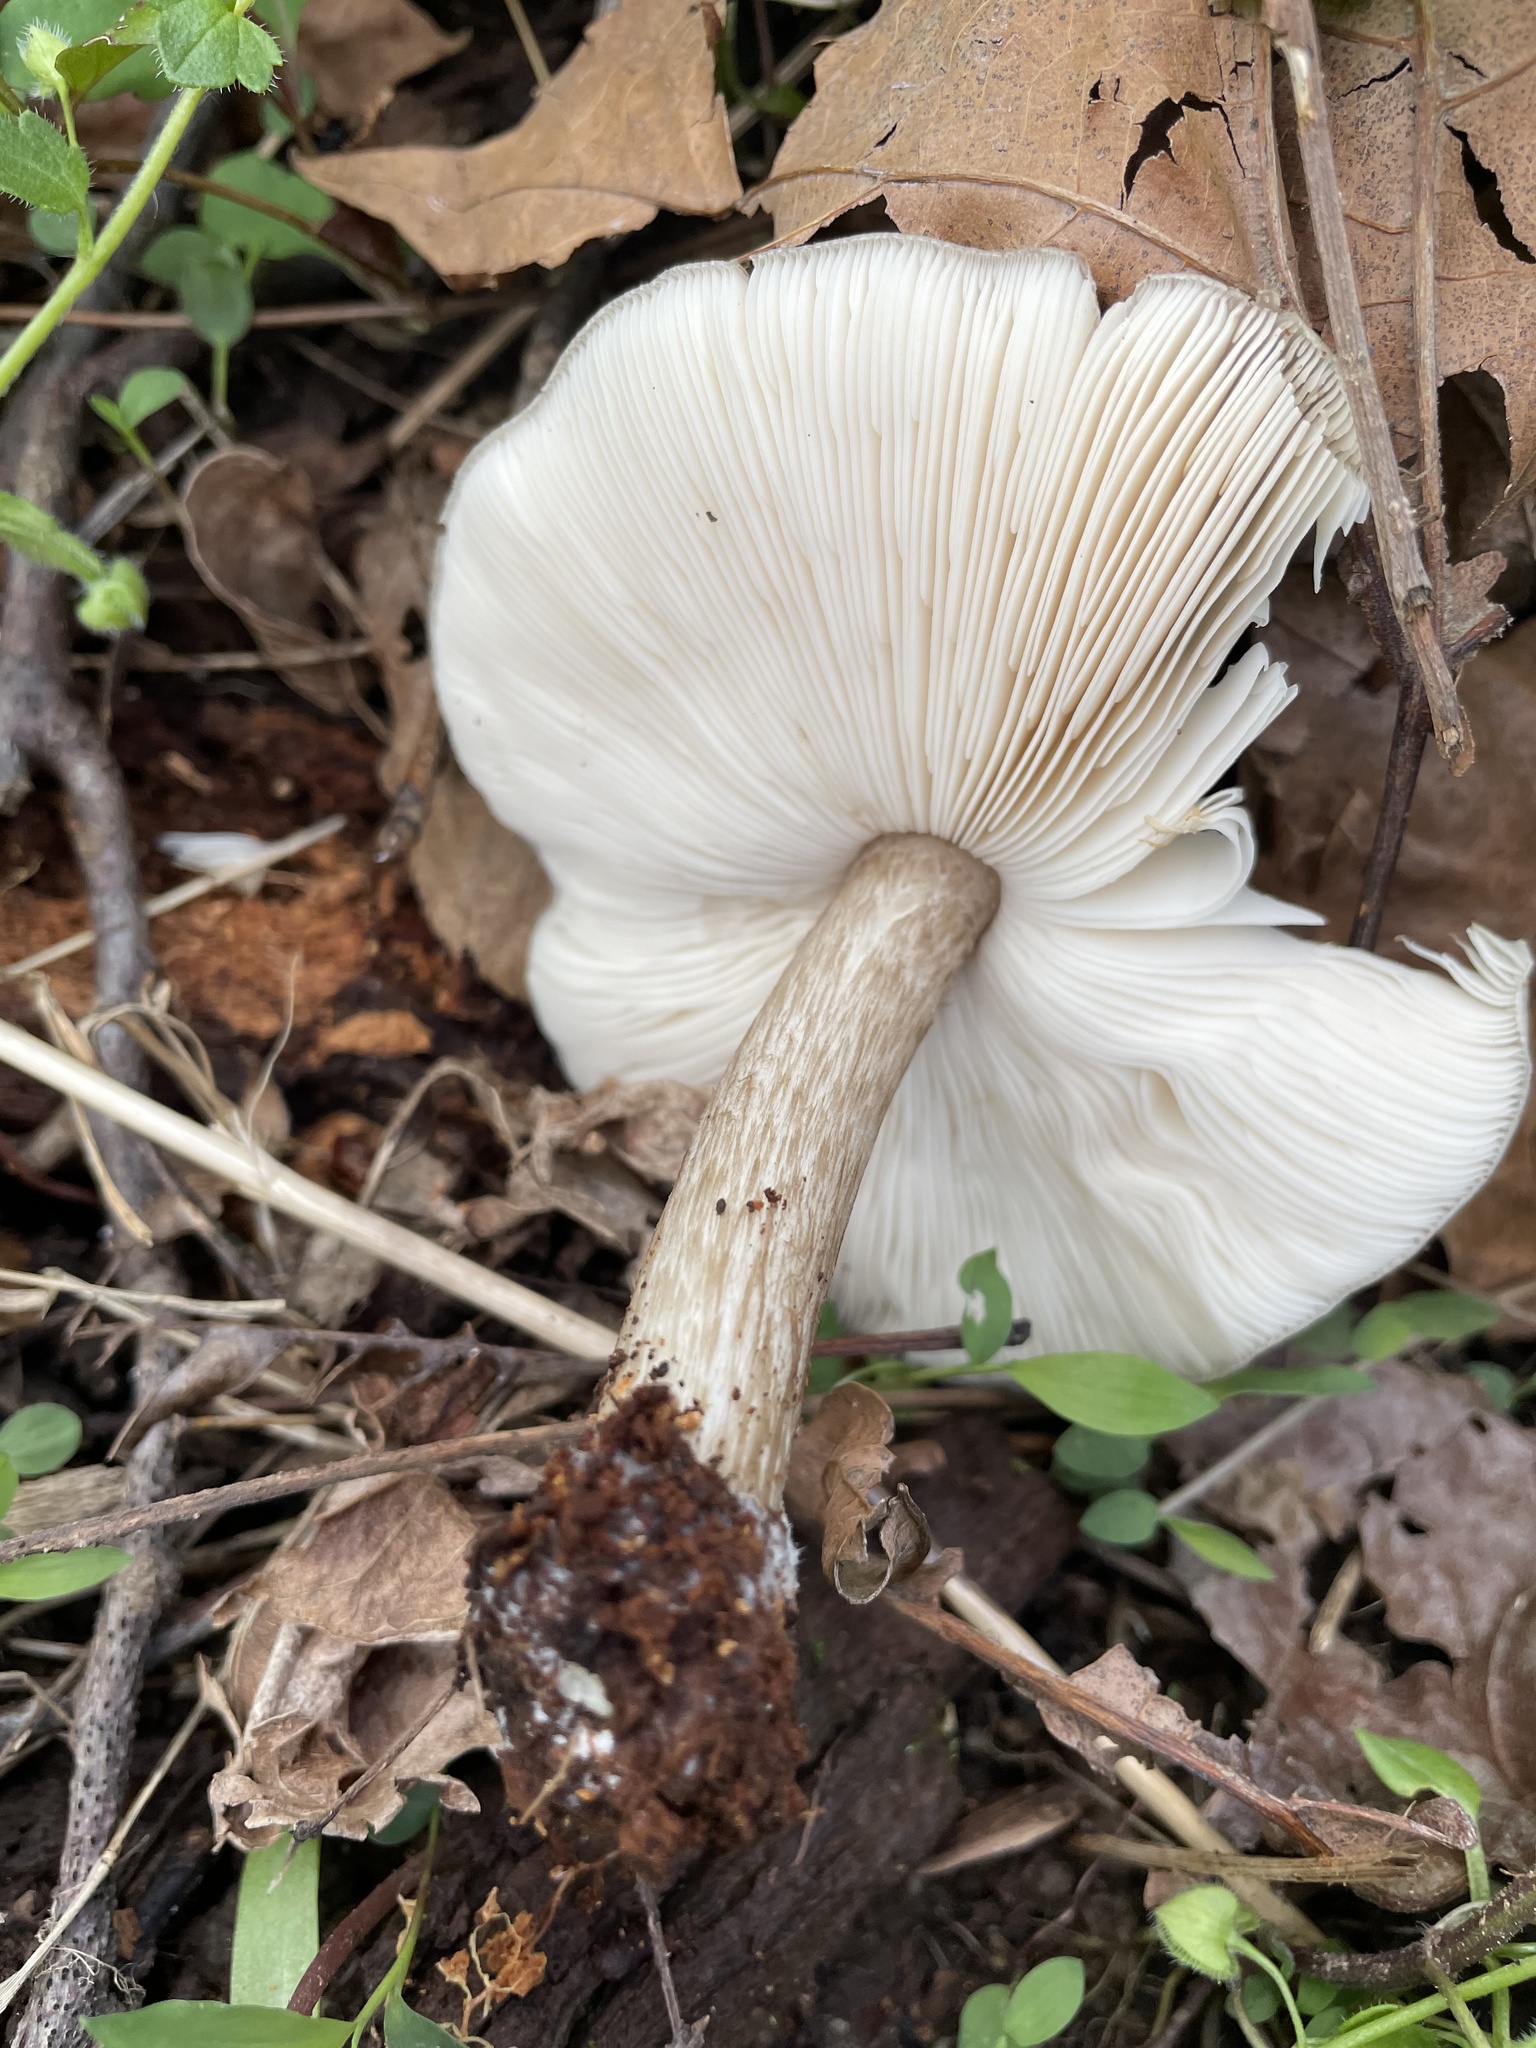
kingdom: Fungi
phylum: Basidiomycota
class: Agaricomycetes
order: Agaricales
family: Pluteaceae
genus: Pluteus
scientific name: Pluteus cervinus
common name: Deer shield
